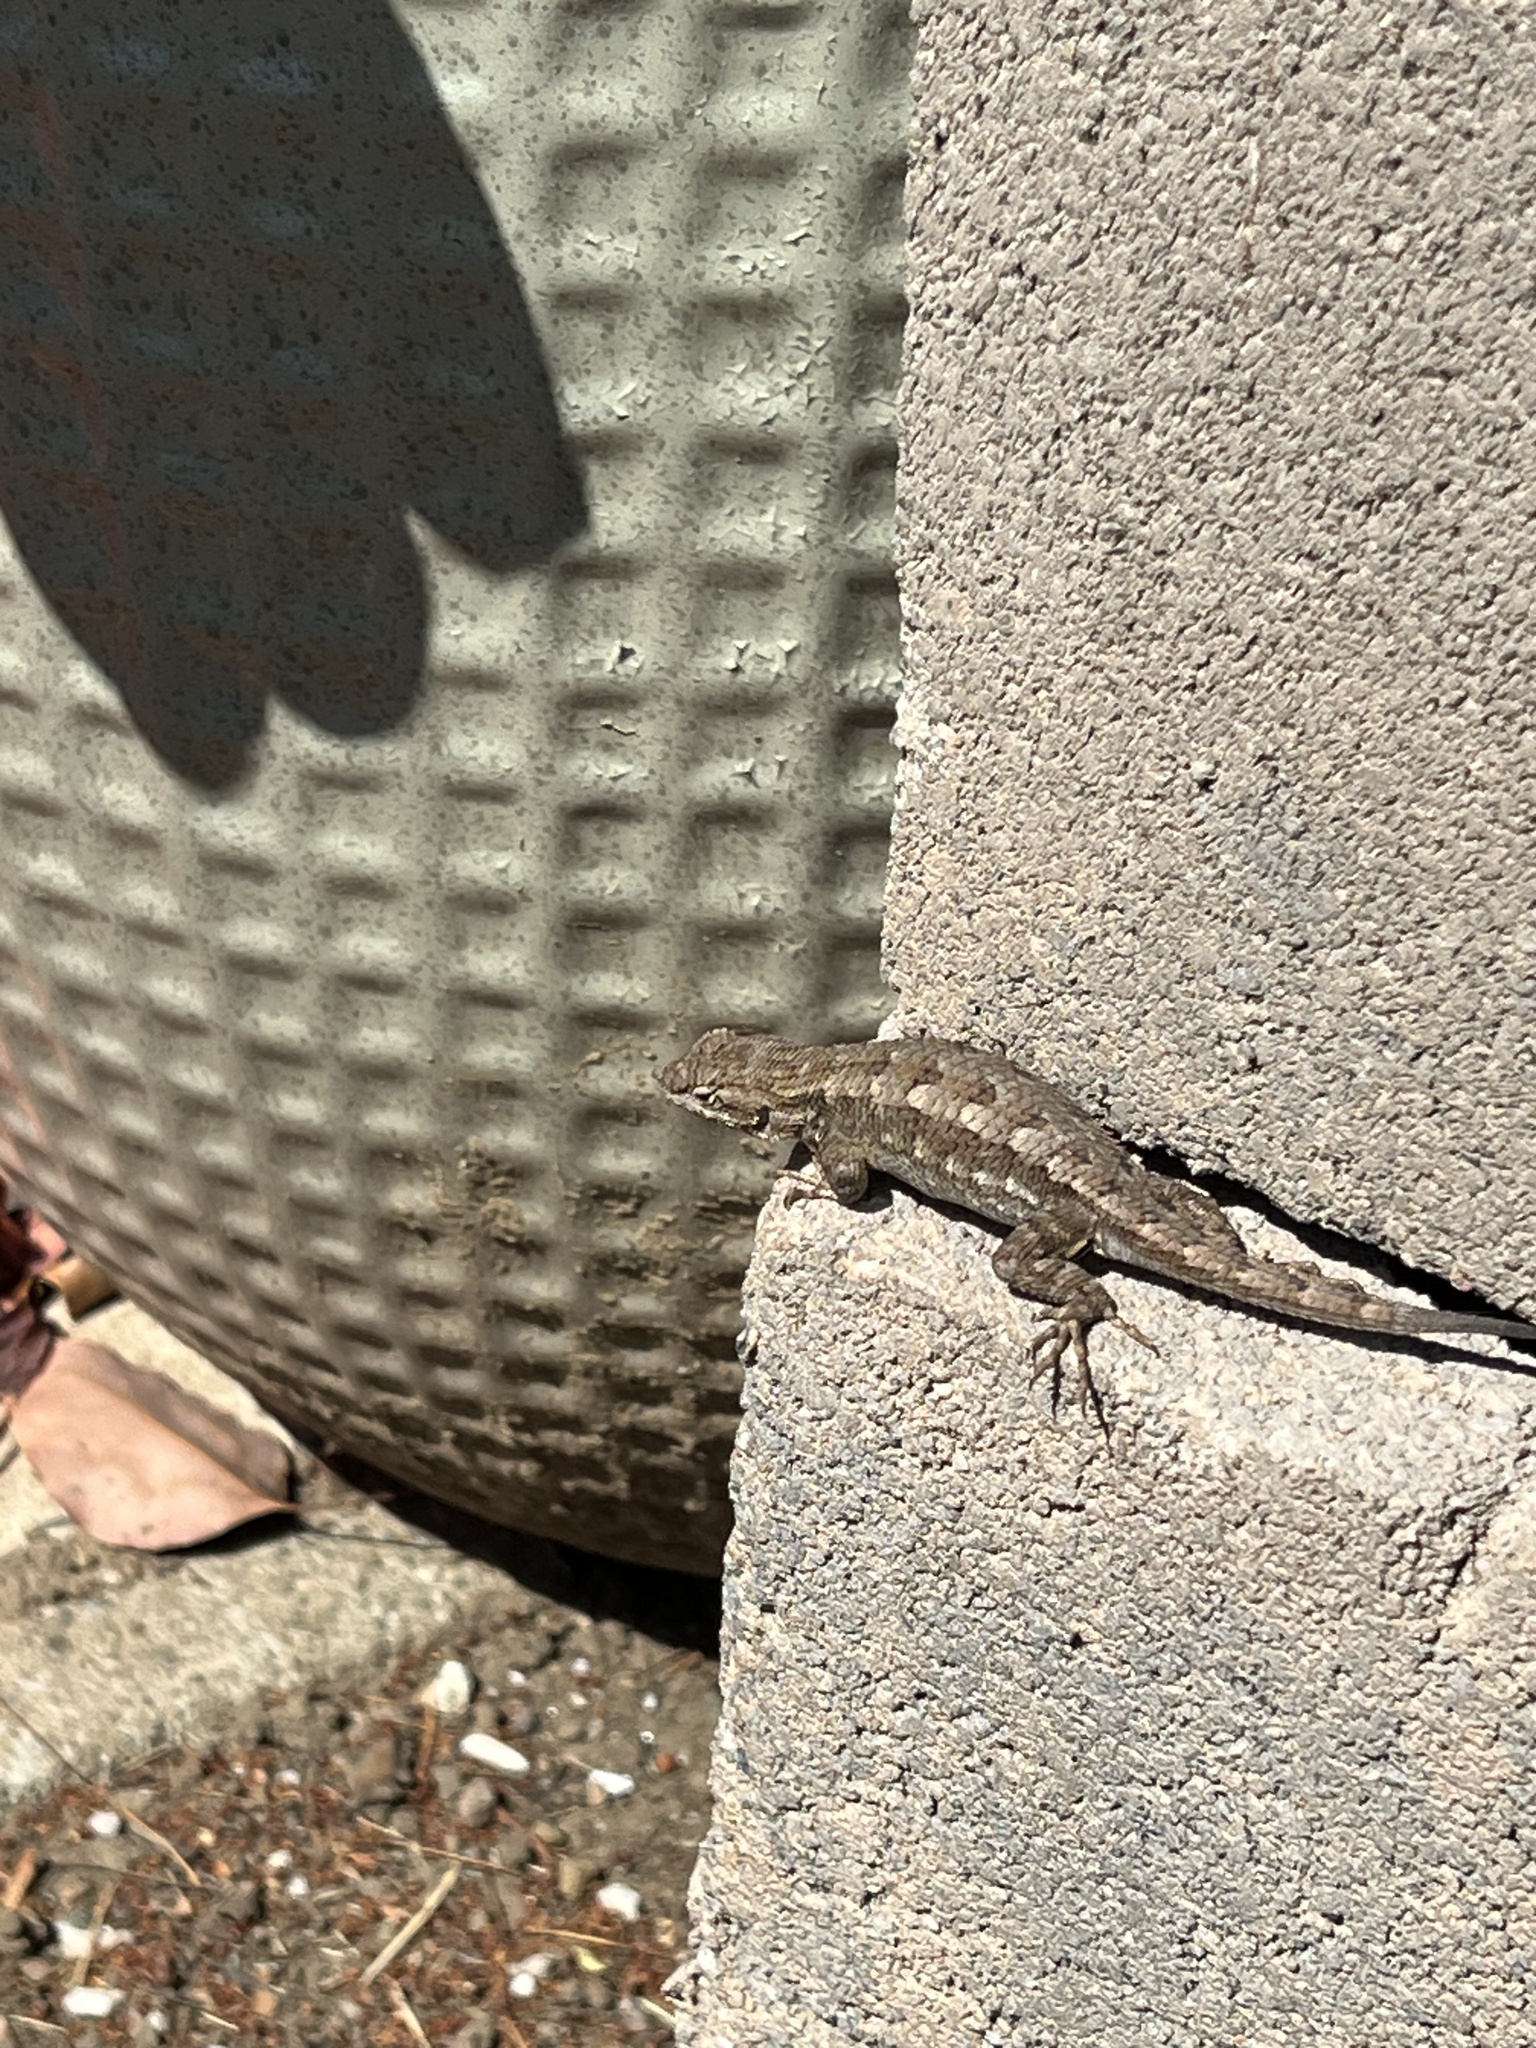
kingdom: Animalia
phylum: Chordata
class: Squamata
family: Phrynosomatidae
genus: Sceloporus
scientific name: Sceloporus occidentalis
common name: Western fence lizard
